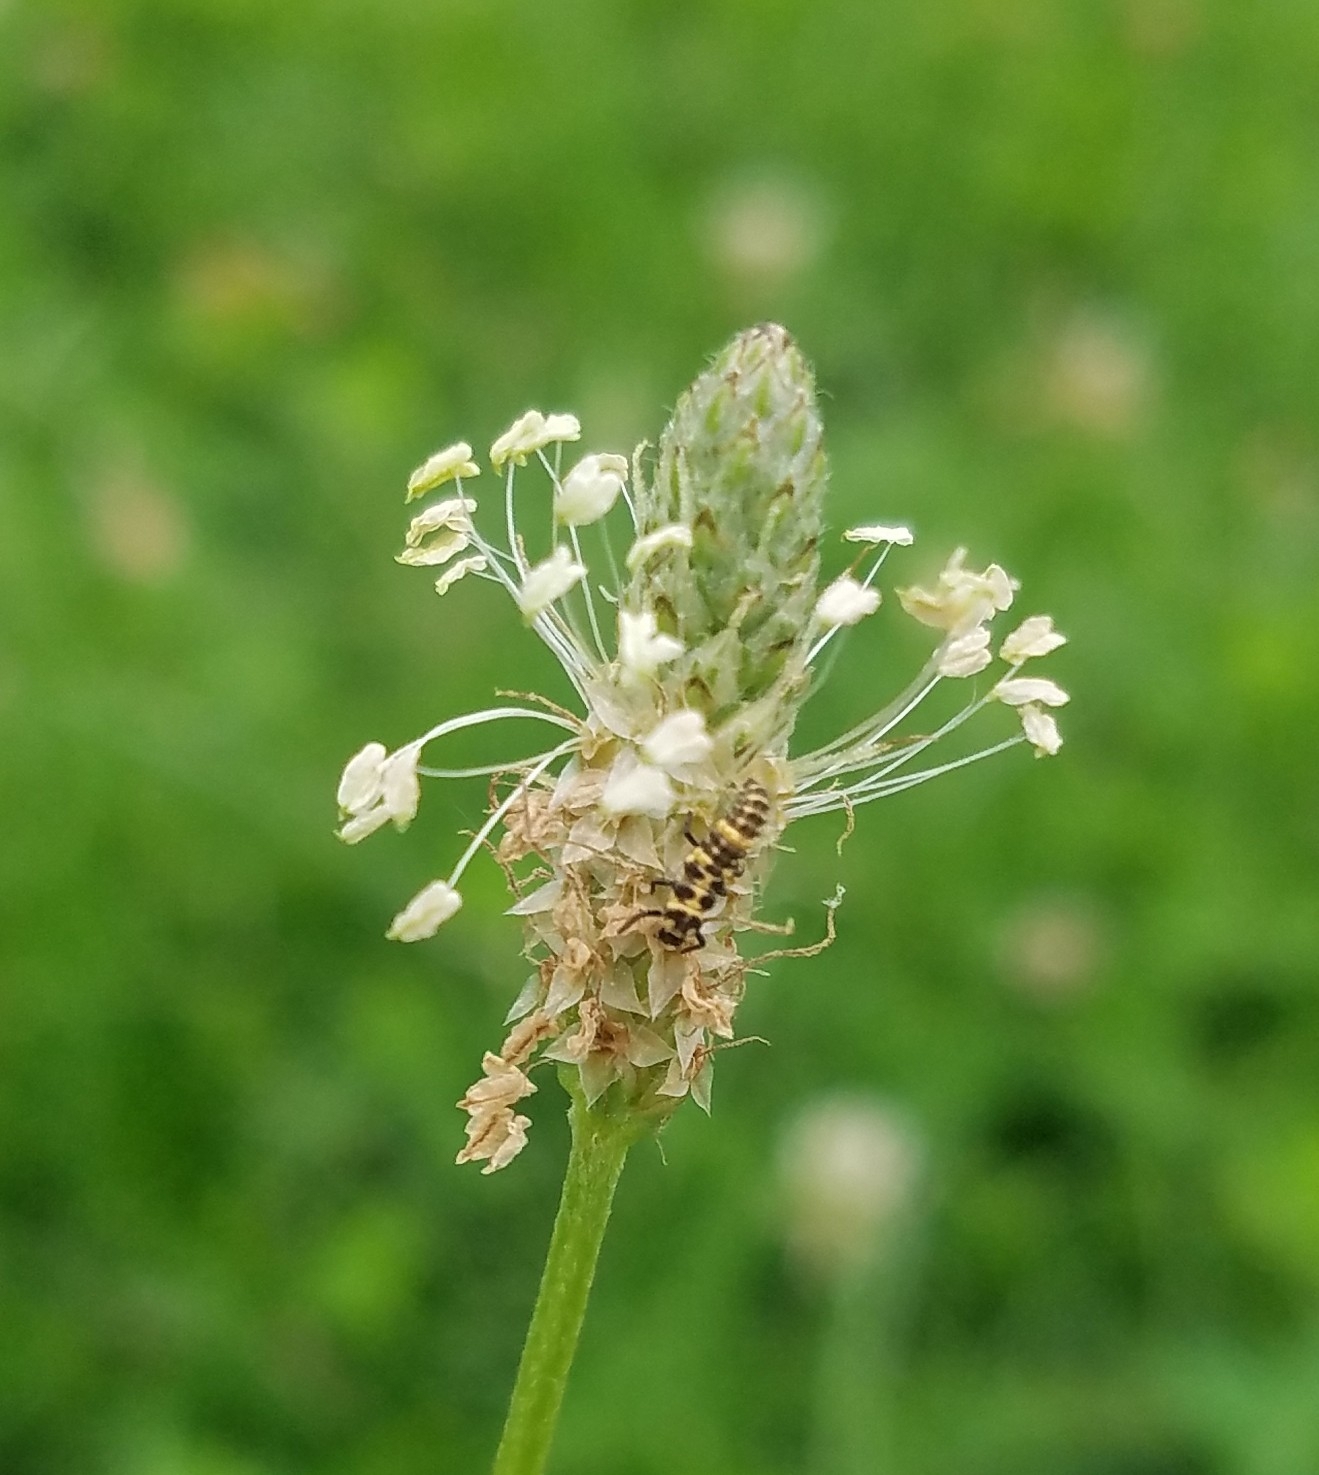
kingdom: Animalia
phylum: Arthropoda
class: Insecta
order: Coleoptera
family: Coccinellidae
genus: Coleomegilla
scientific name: Coleomegilla maculata
